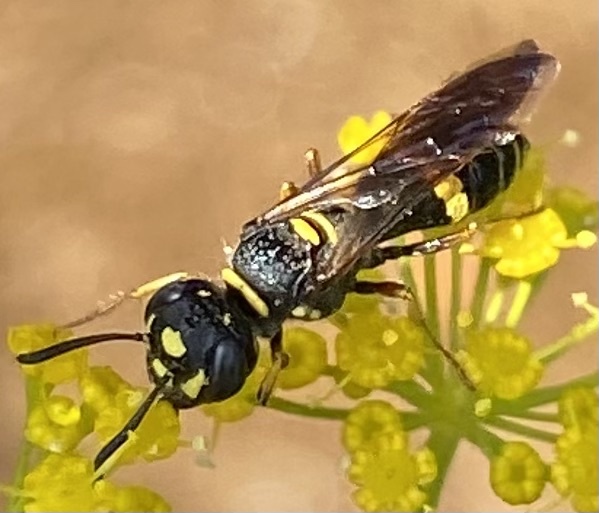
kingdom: Animalia
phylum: Arthropoda
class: Insecta
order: Hymenoptera
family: Crabronidae
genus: Philanthus
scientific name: Philanthus gibbosus
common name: Humped beewolf
